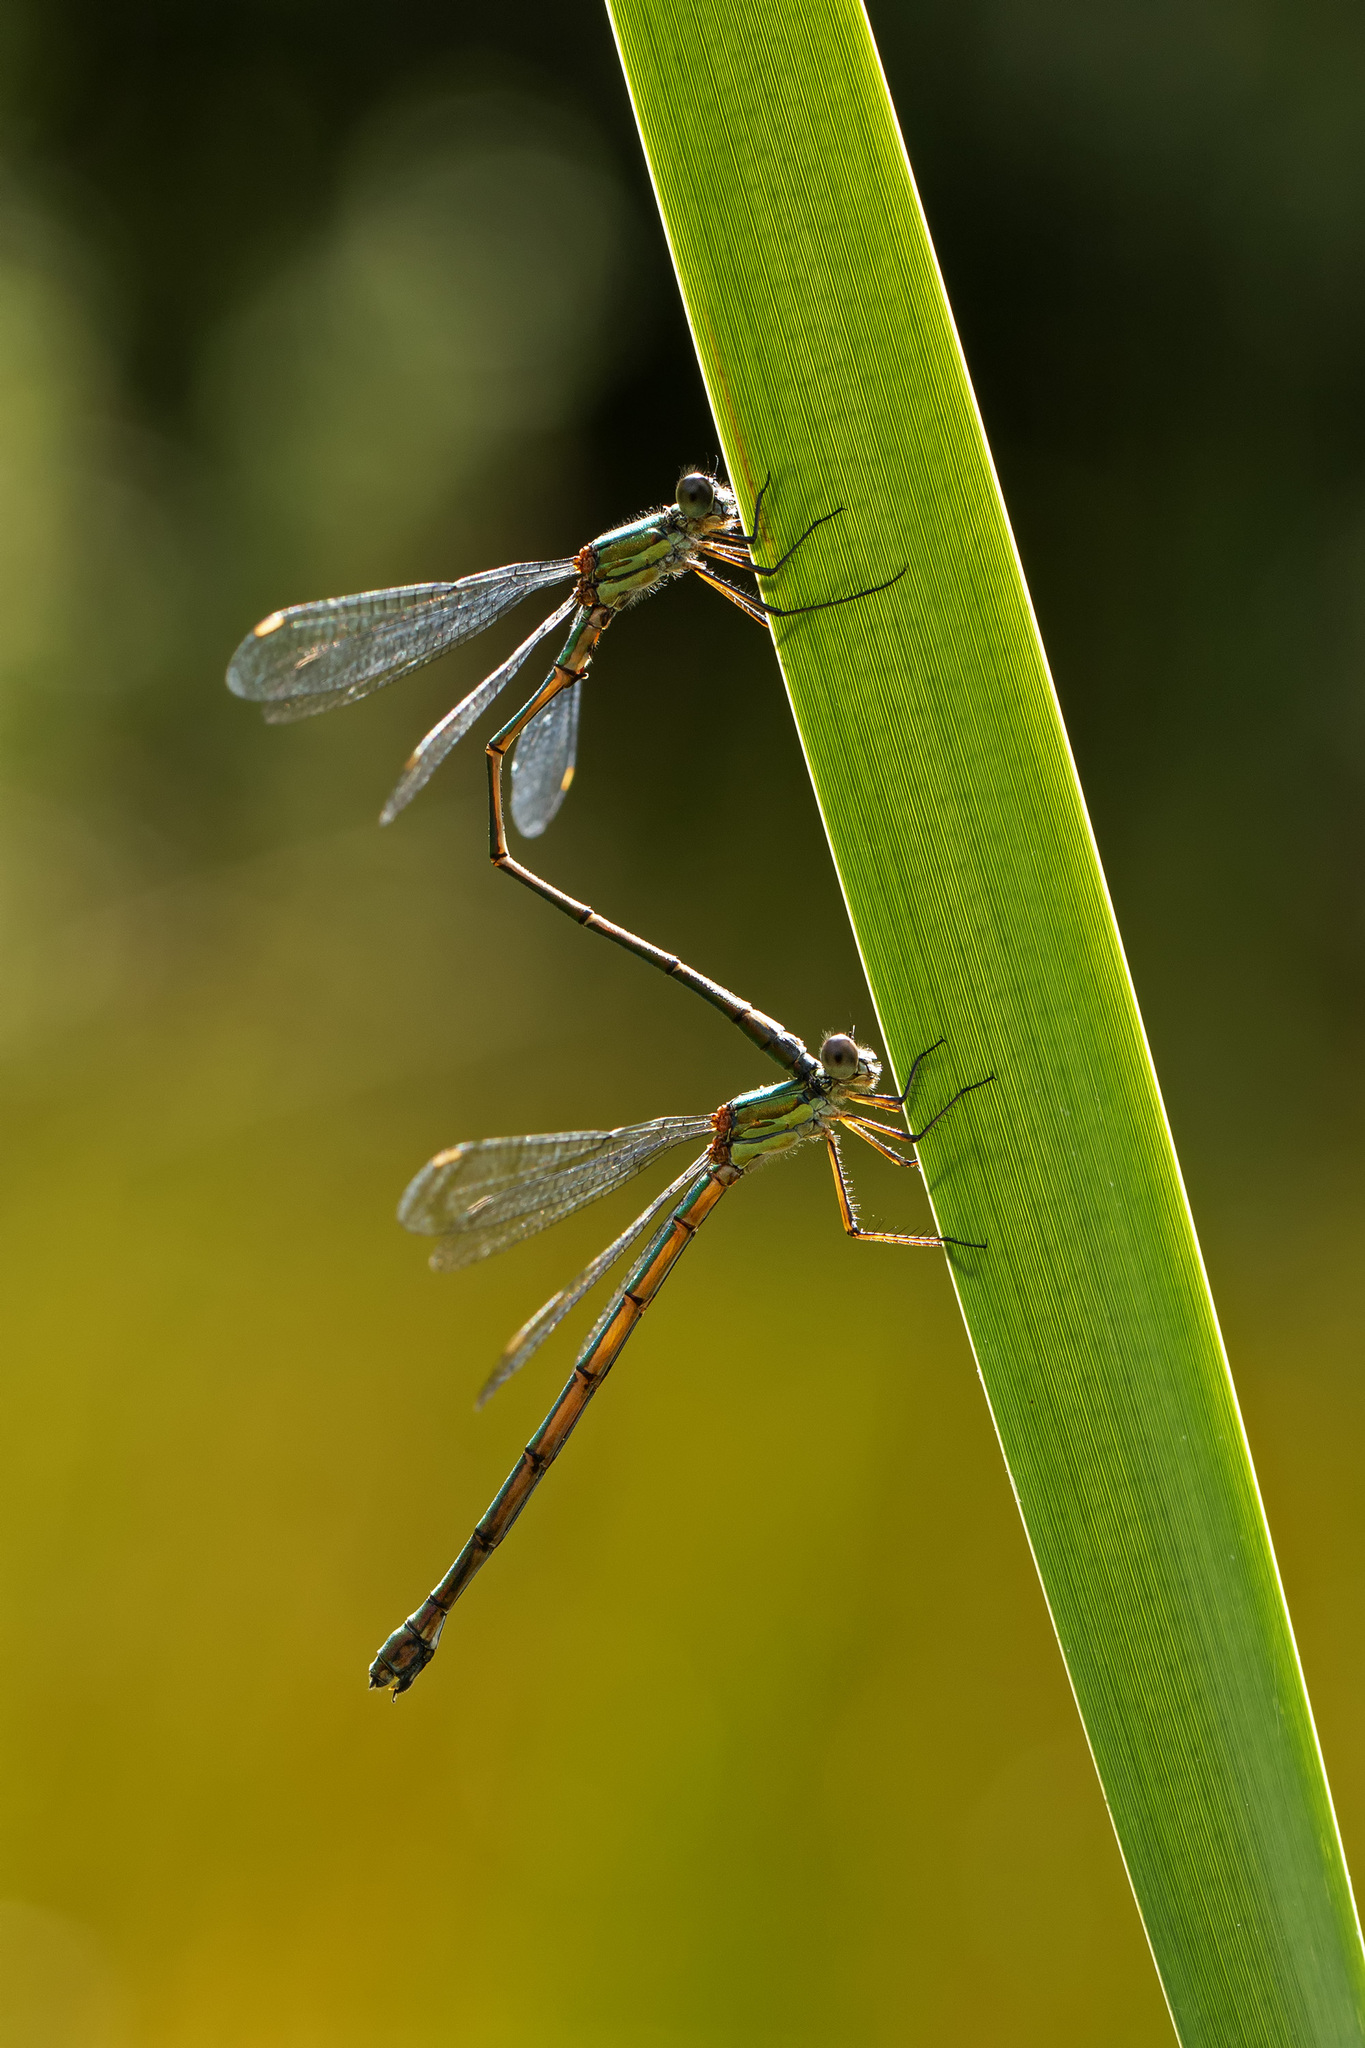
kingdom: Animalia
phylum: Arthropoda
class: Insecta
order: Odonata
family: Lestidae
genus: Chalcolestes
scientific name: Chalcolestes viridis
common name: Green emerald damselfly
